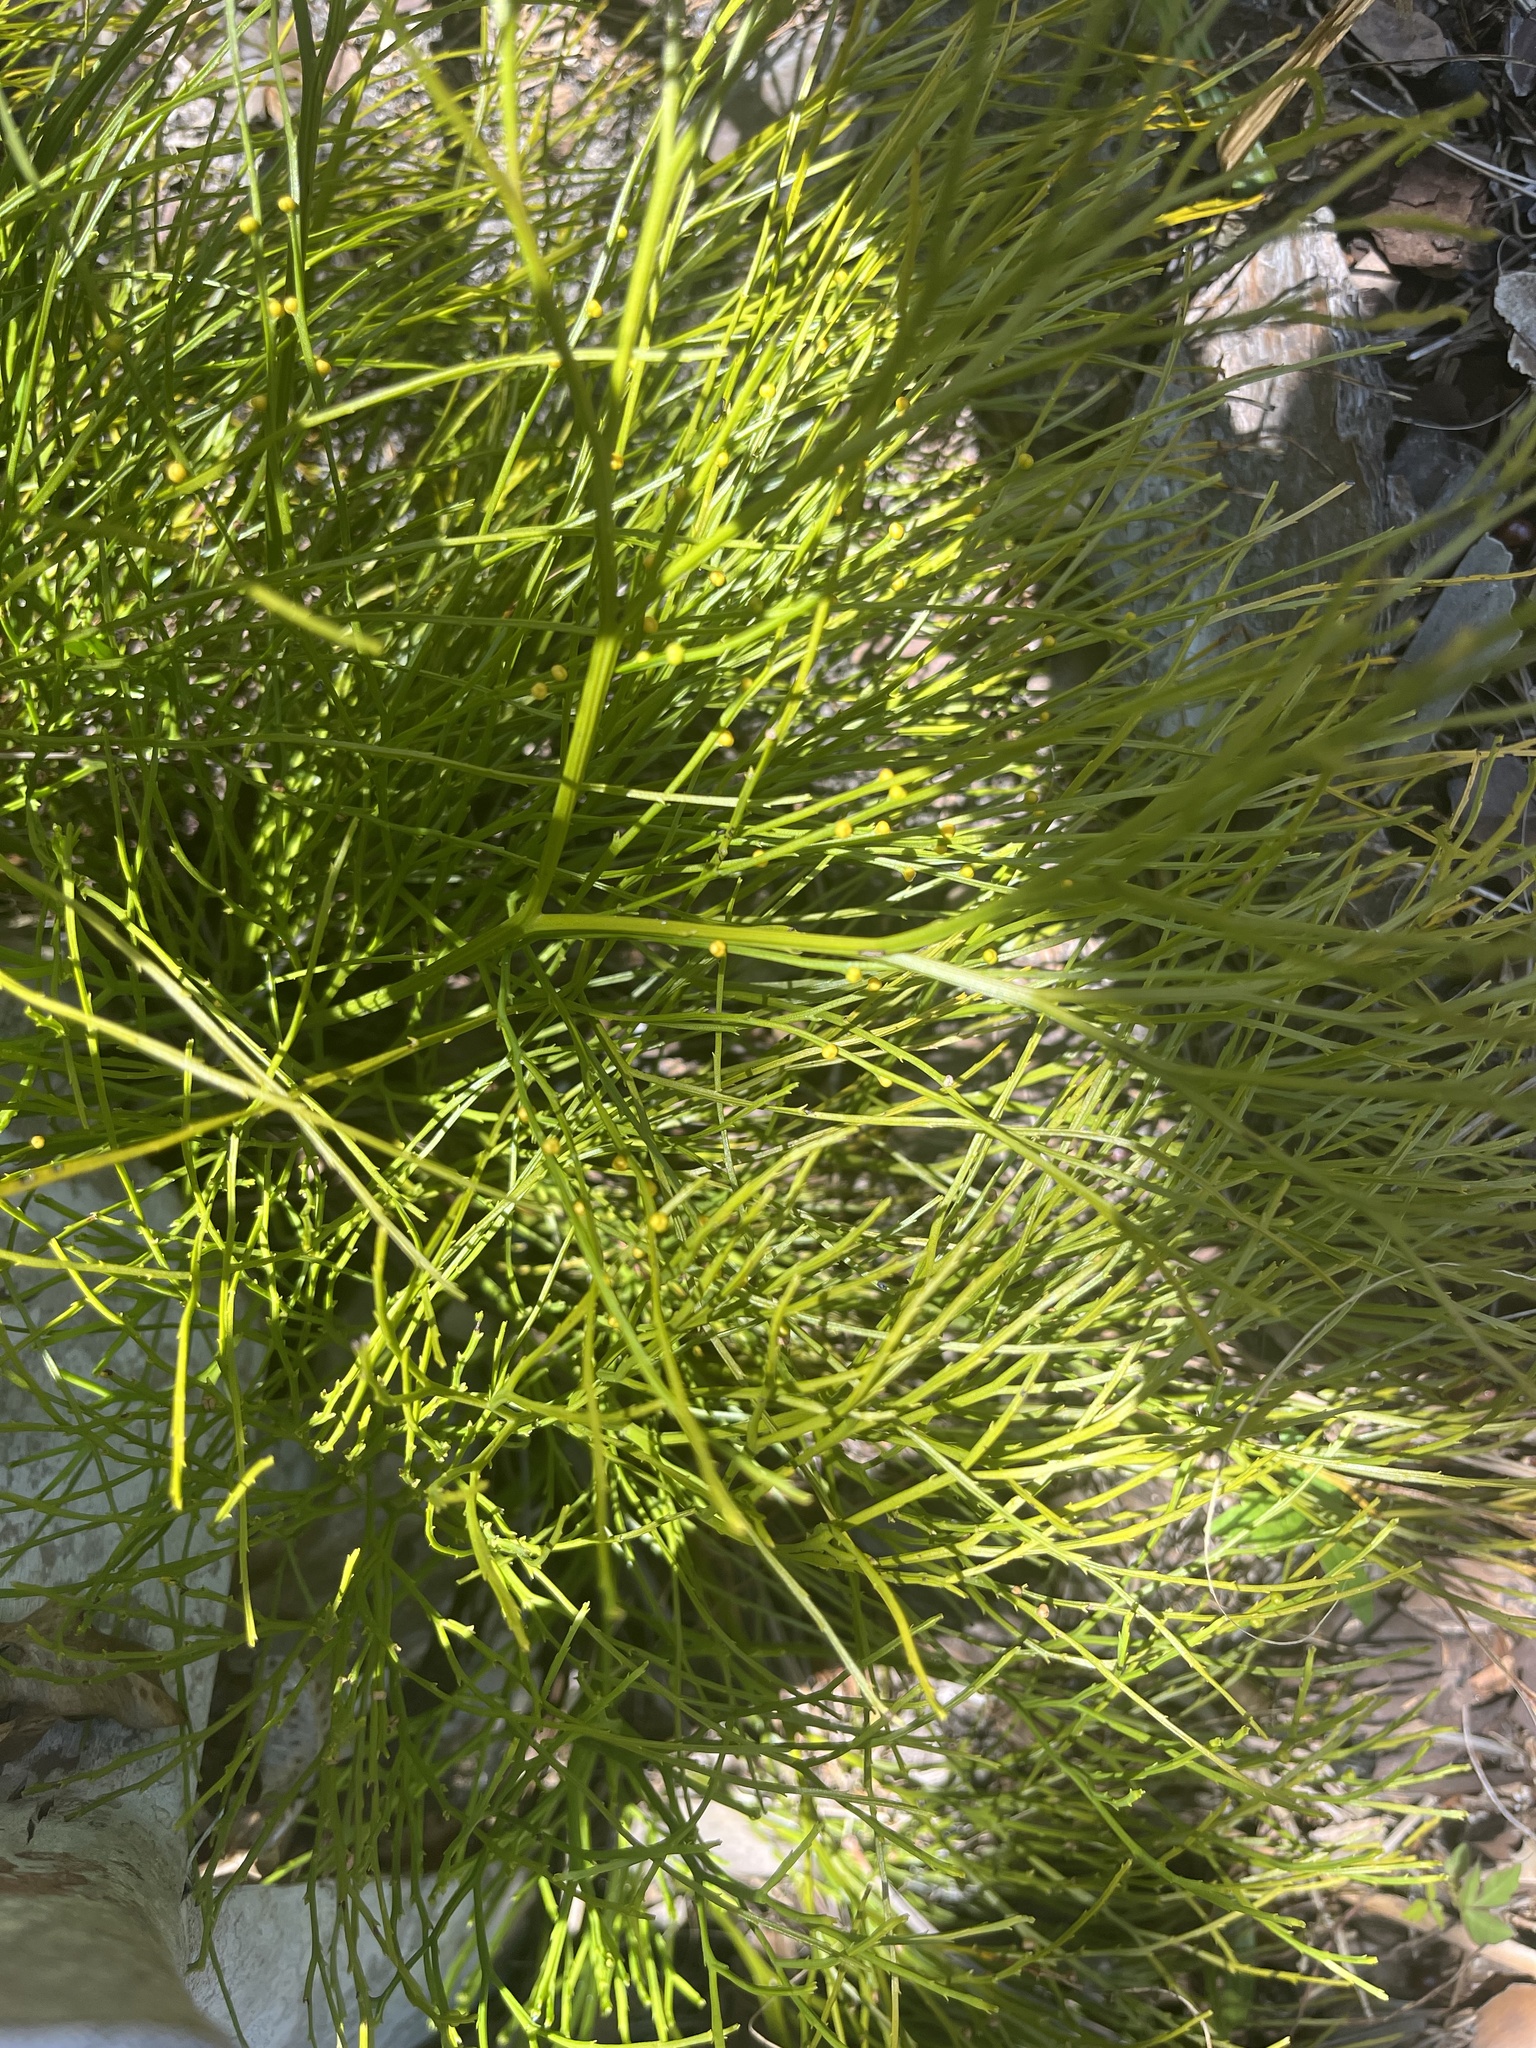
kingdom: Plantae
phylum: Tracheophyta
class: Polypodiopsida
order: Psilotales
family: Psilotaceae
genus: Psilotum
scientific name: Psilotum nudum
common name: Skeleton fork fern
